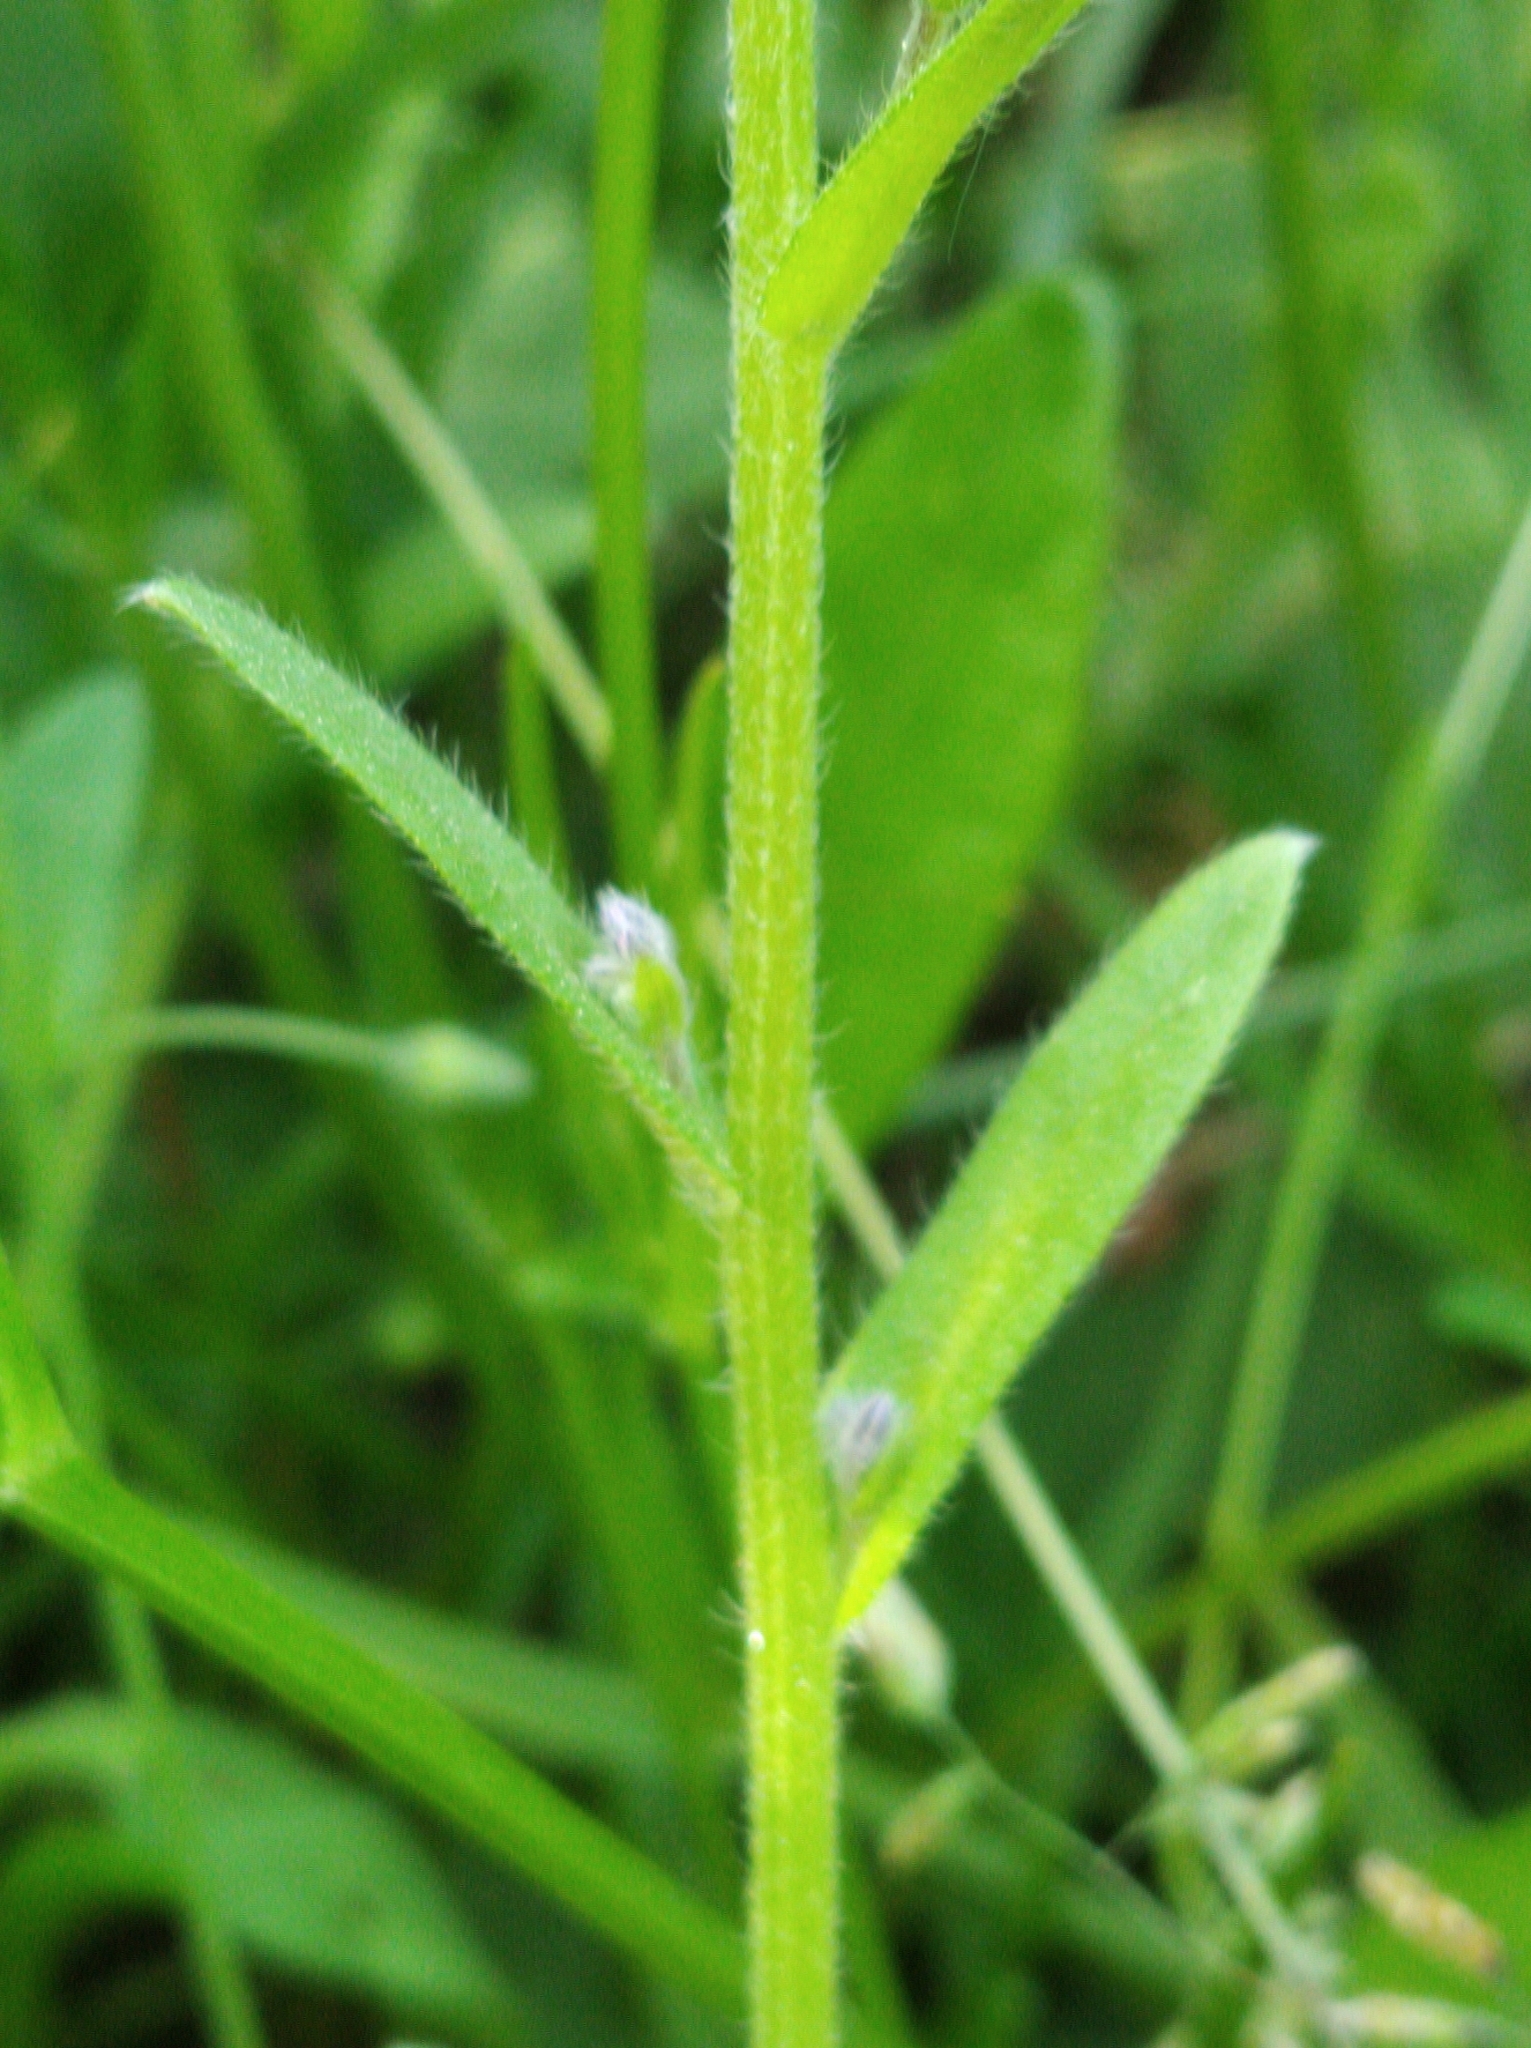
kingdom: Plantae
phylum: Tracheophyta
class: Magnoliopsida
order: Boraginales
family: Boraginaceae
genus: Myosotis
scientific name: Myosotis arvensis
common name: Field forget-me-not
